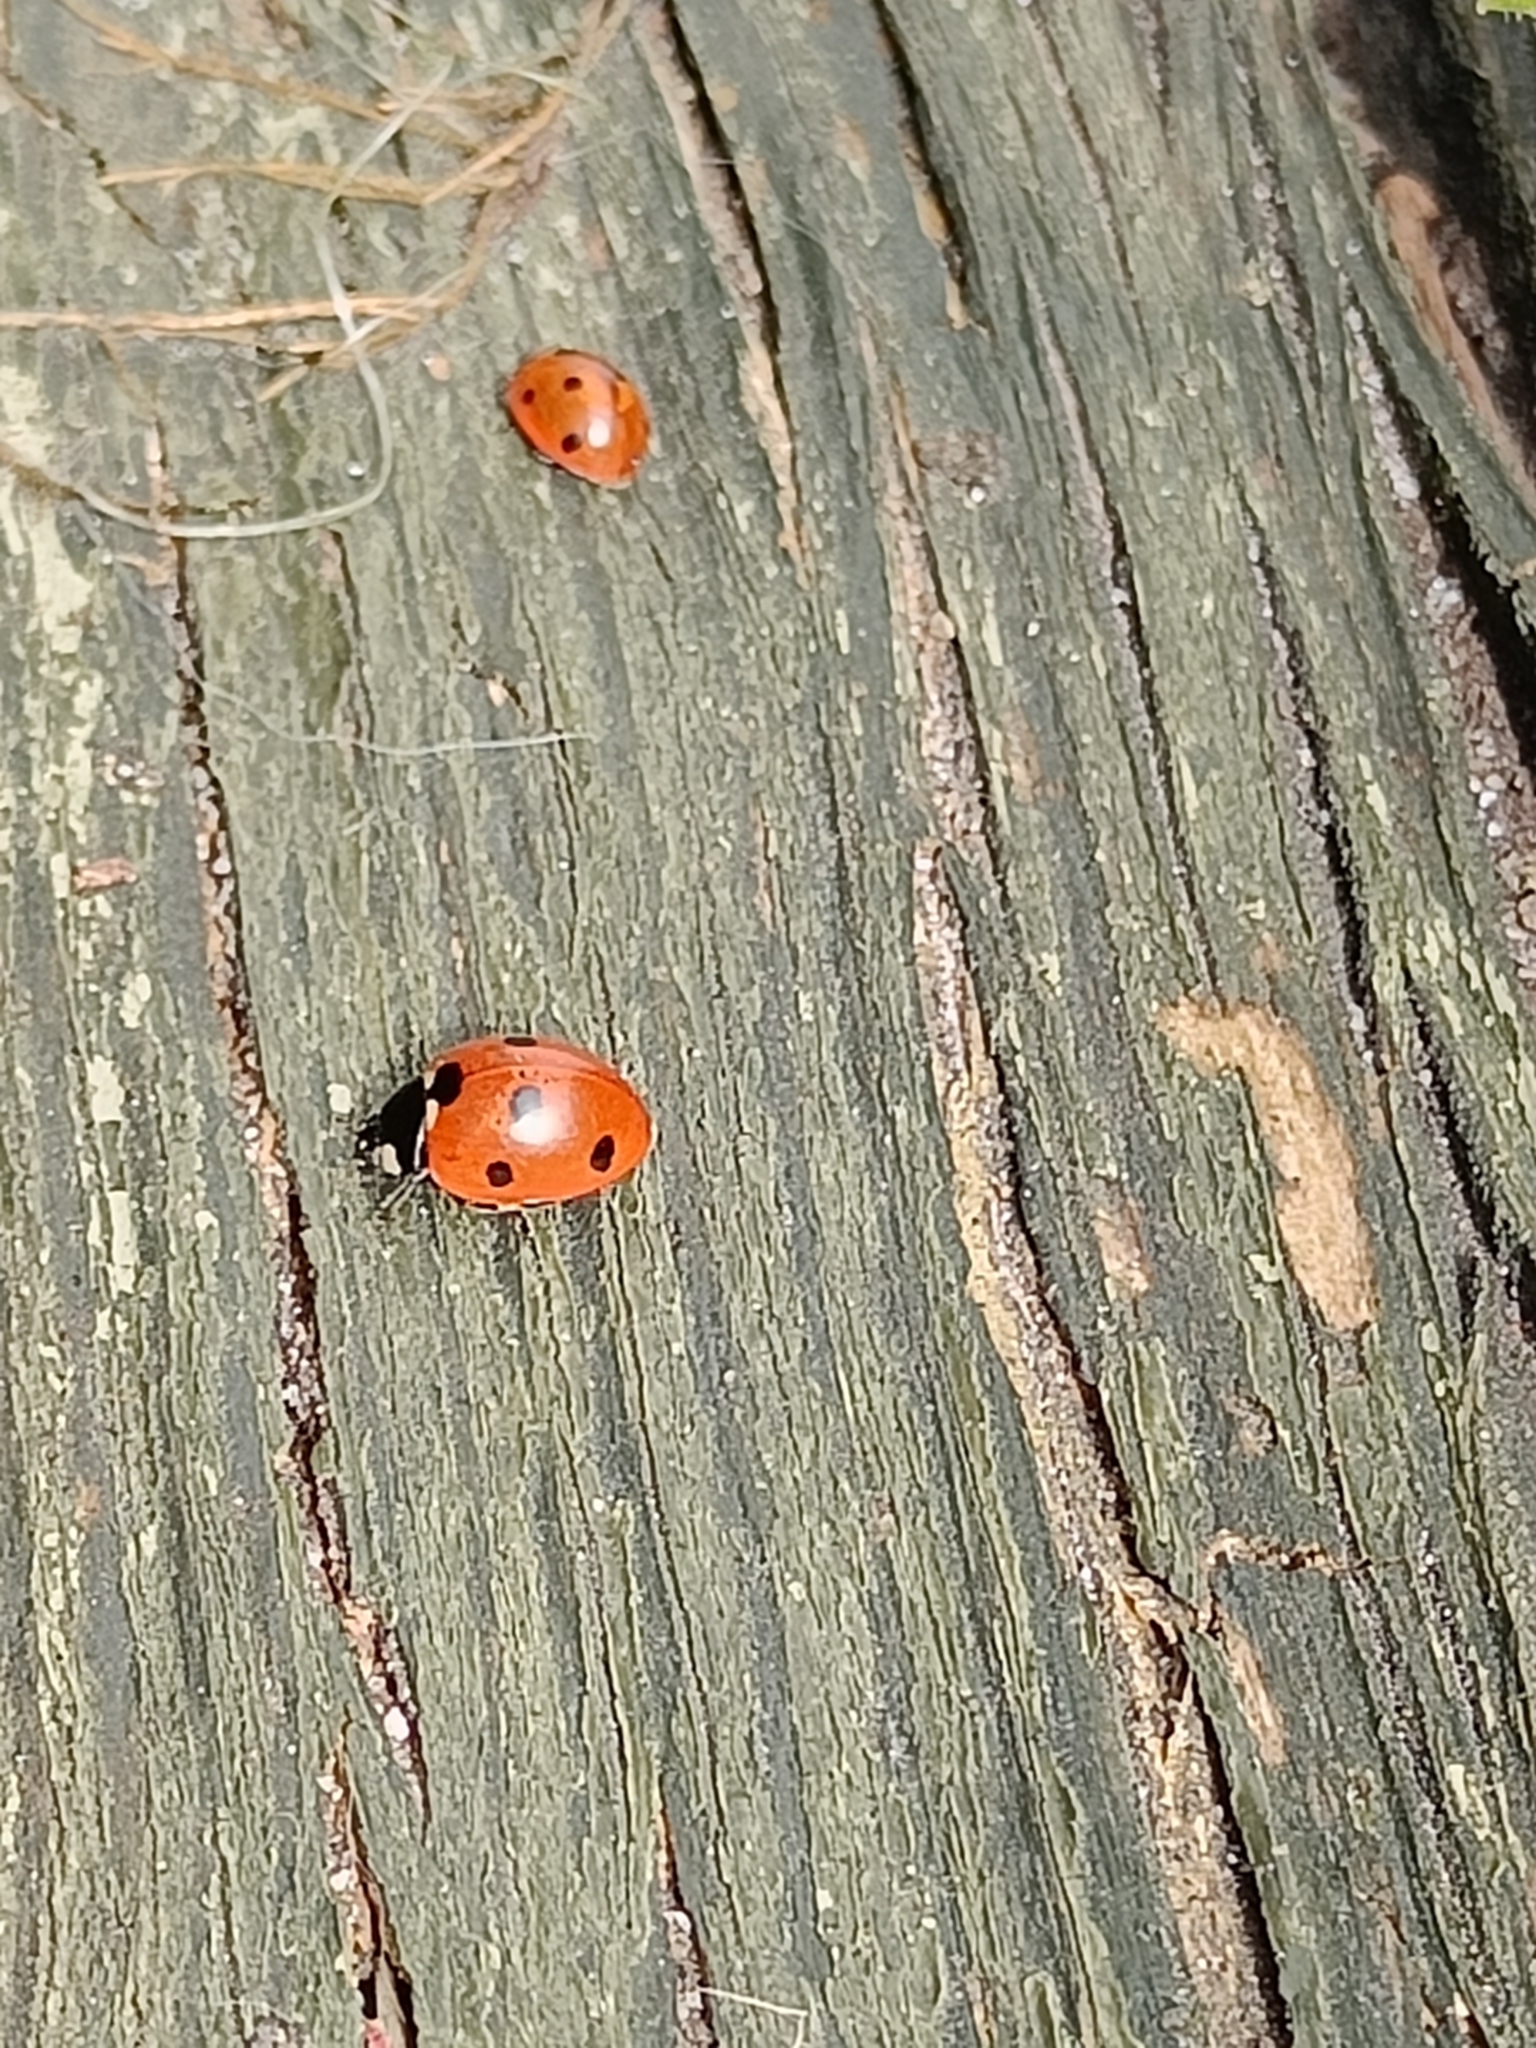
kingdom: Animalia
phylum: Arthropoda
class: Insecta
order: Coleoptera
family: Coccinellidae
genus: Coccinella
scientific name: Coccinella septempunctata
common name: Sevenspotted lady beetle
